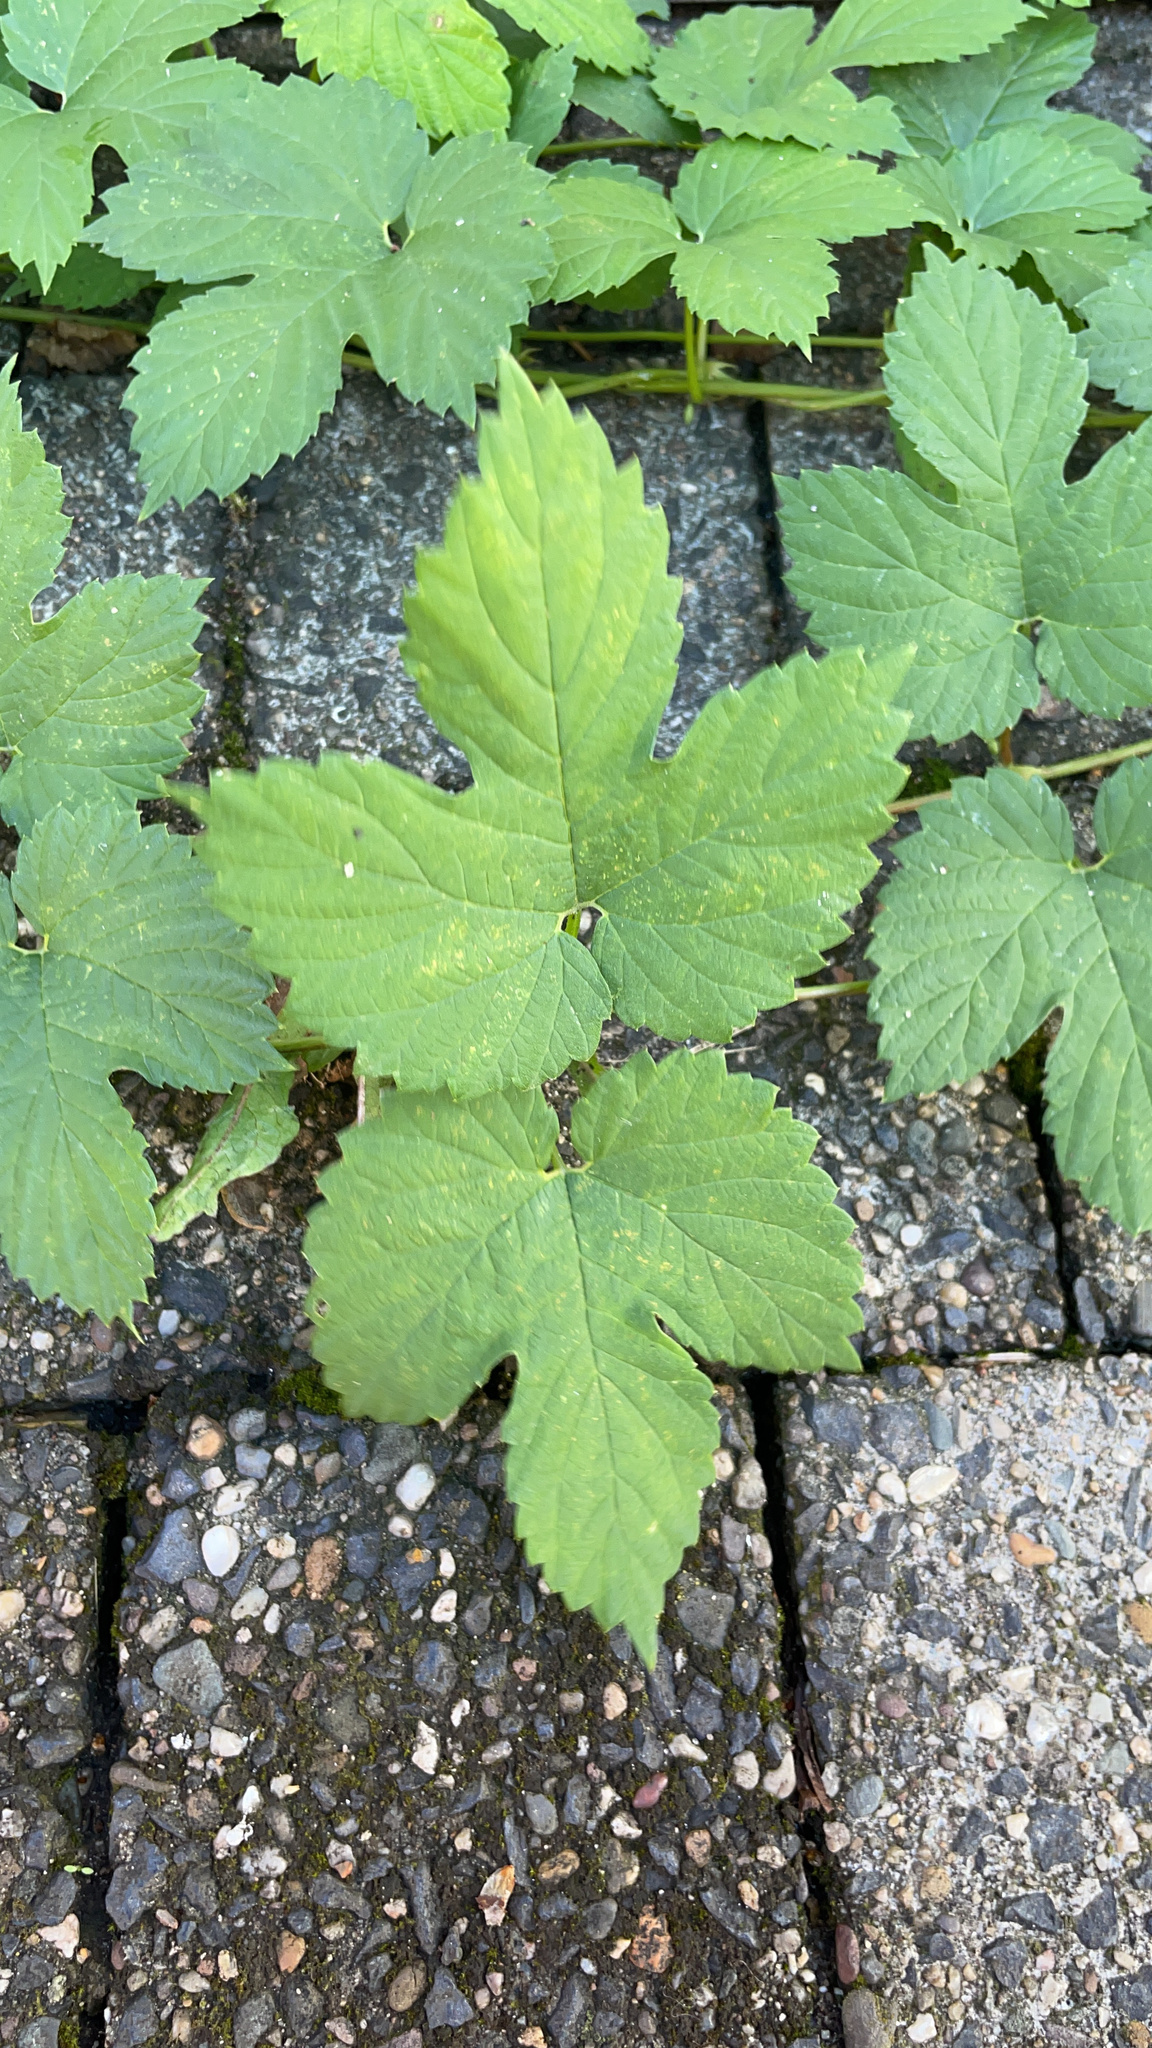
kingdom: Plantae
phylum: Tracheophyta
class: Magnoliopsida
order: Rosales
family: Cannabaceae
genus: Humulus
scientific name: Humulus lupulus
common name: Hop
